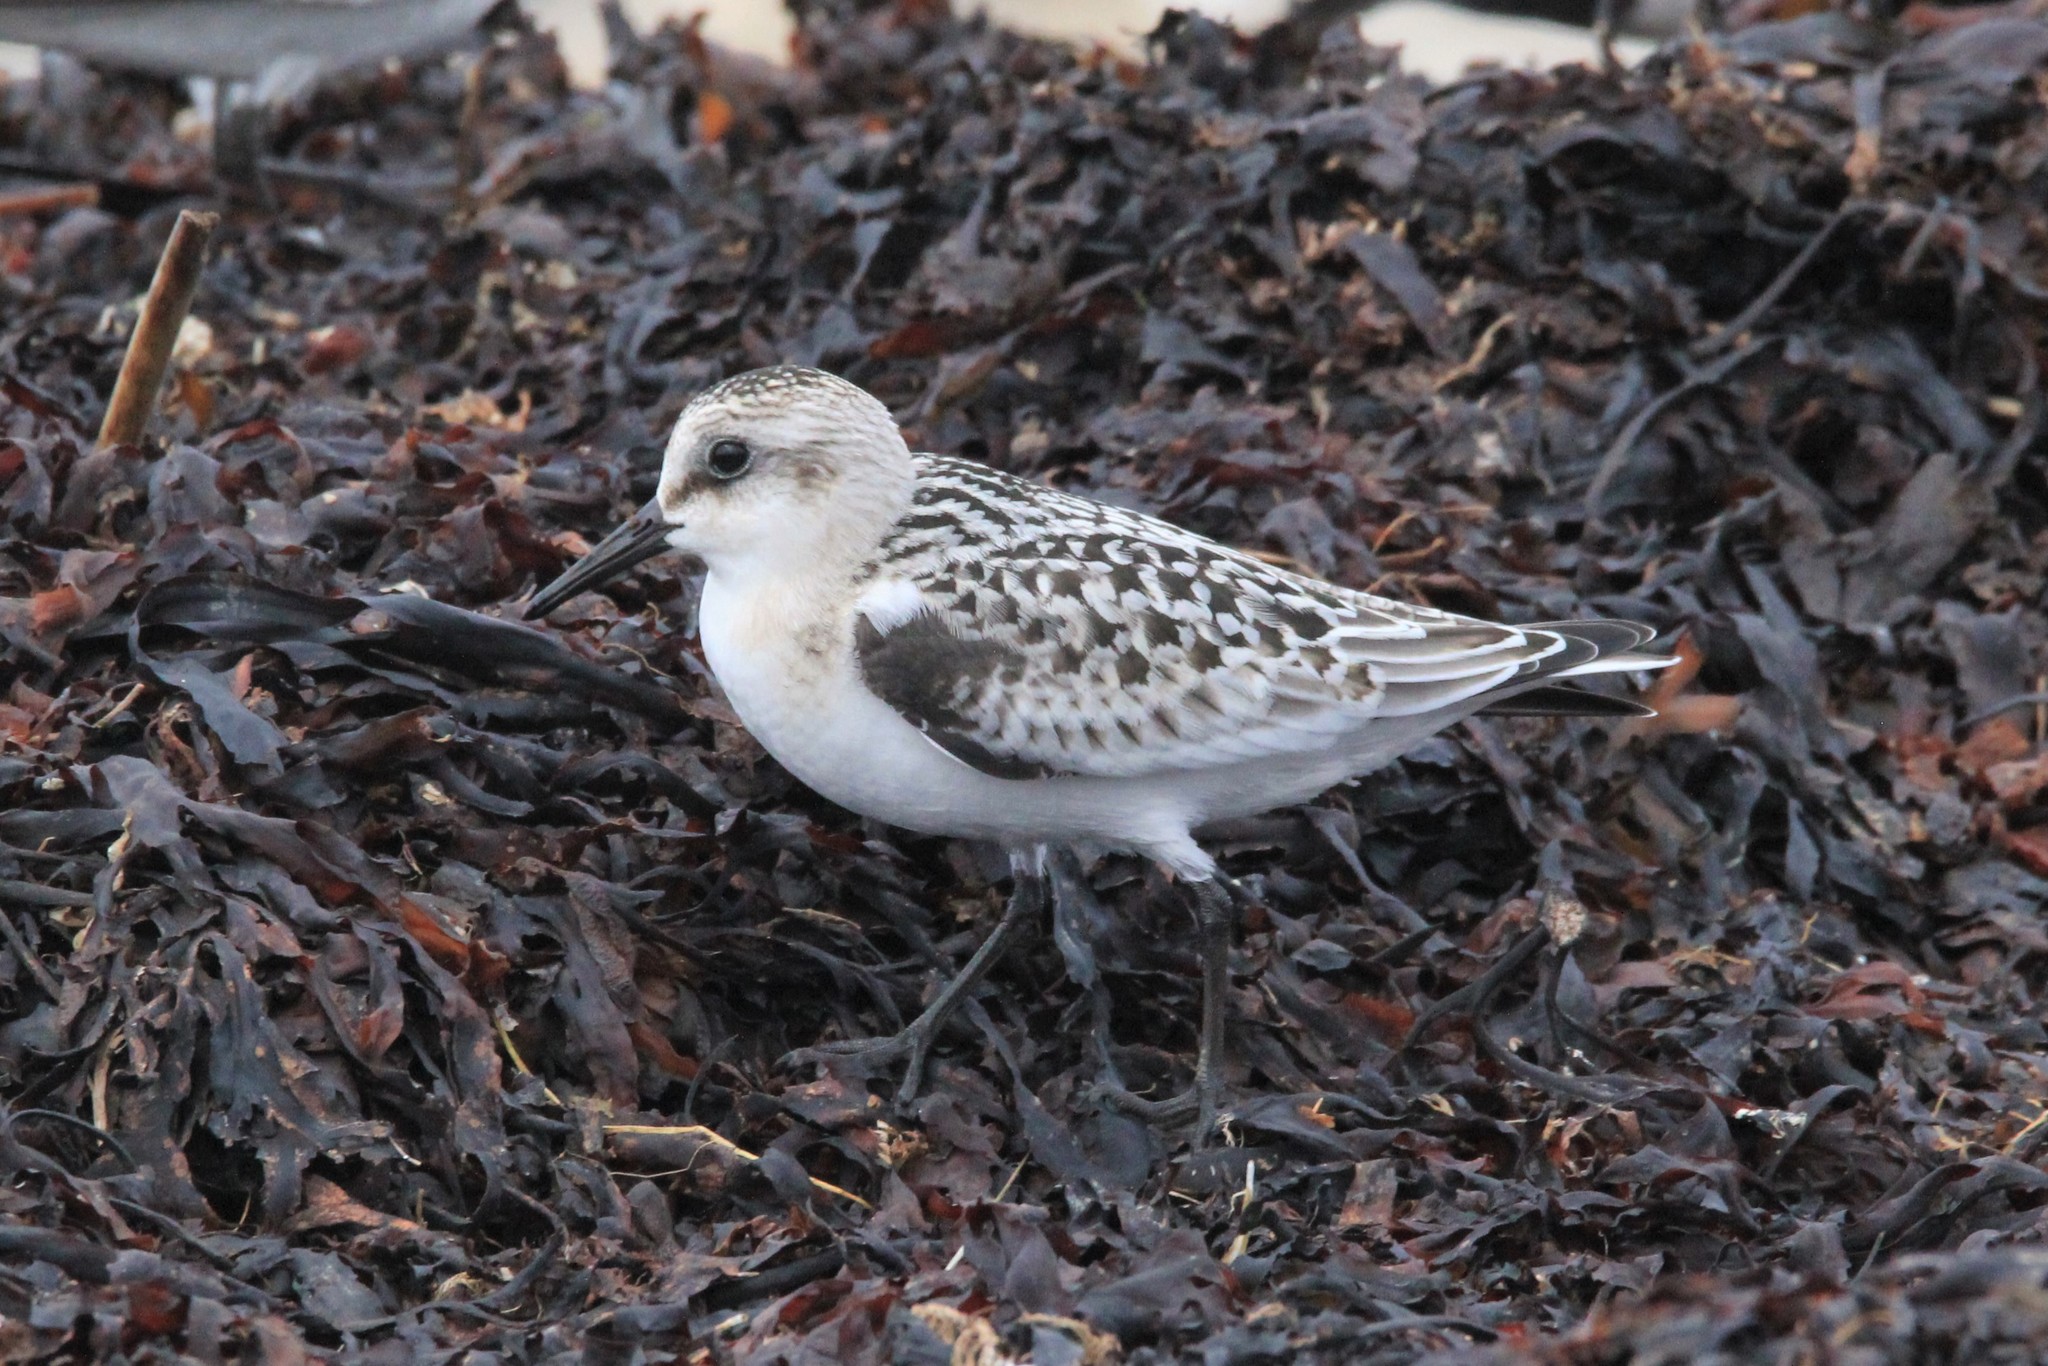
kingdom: Animalia
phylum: Chordata
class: Aves
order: Charadriiformes
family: Scolopacidae
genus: Calidris
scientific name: Calidris alba
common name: Sanderling
